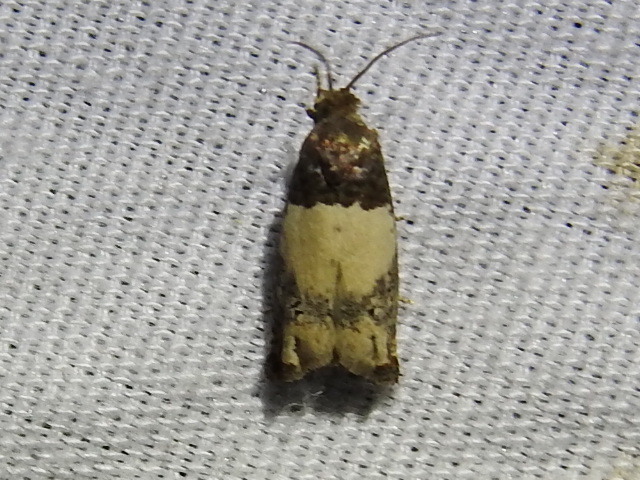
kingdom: Animalia
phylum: Arthropoda
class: Insecta
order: Lepidoptera
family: Tortricidae
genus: Epiblema
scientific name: Epiblema scudderiana
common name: Goldenrod gall moth
